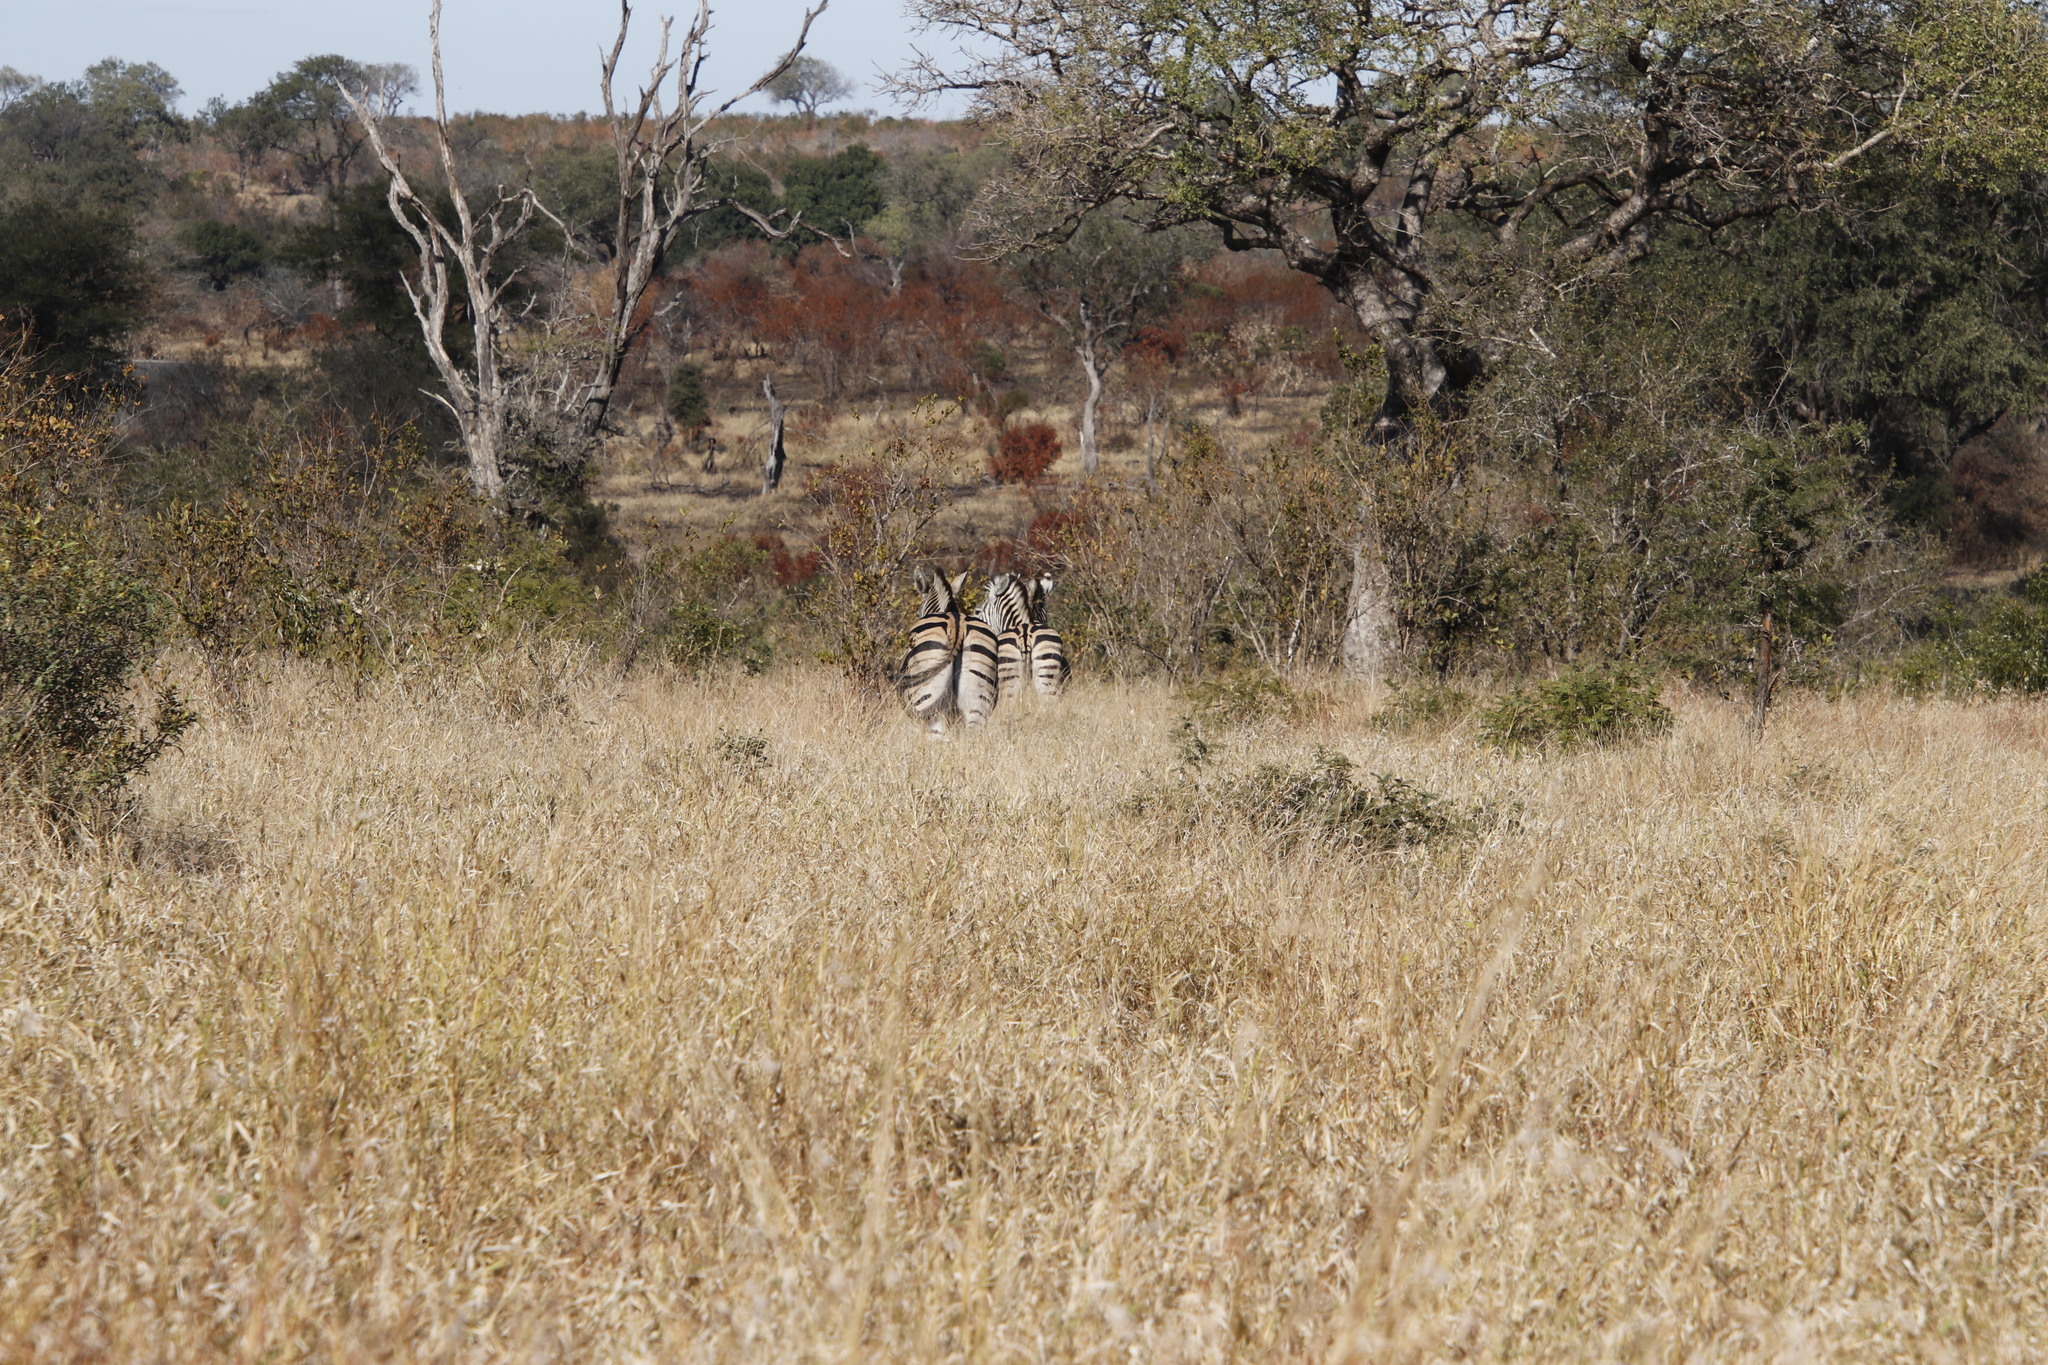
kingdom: Animalia
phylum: Chordata
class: Mammalia
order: Perissodactyla
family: Equidae
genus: Equus
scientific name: Equus quagga
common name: Plains zebra
